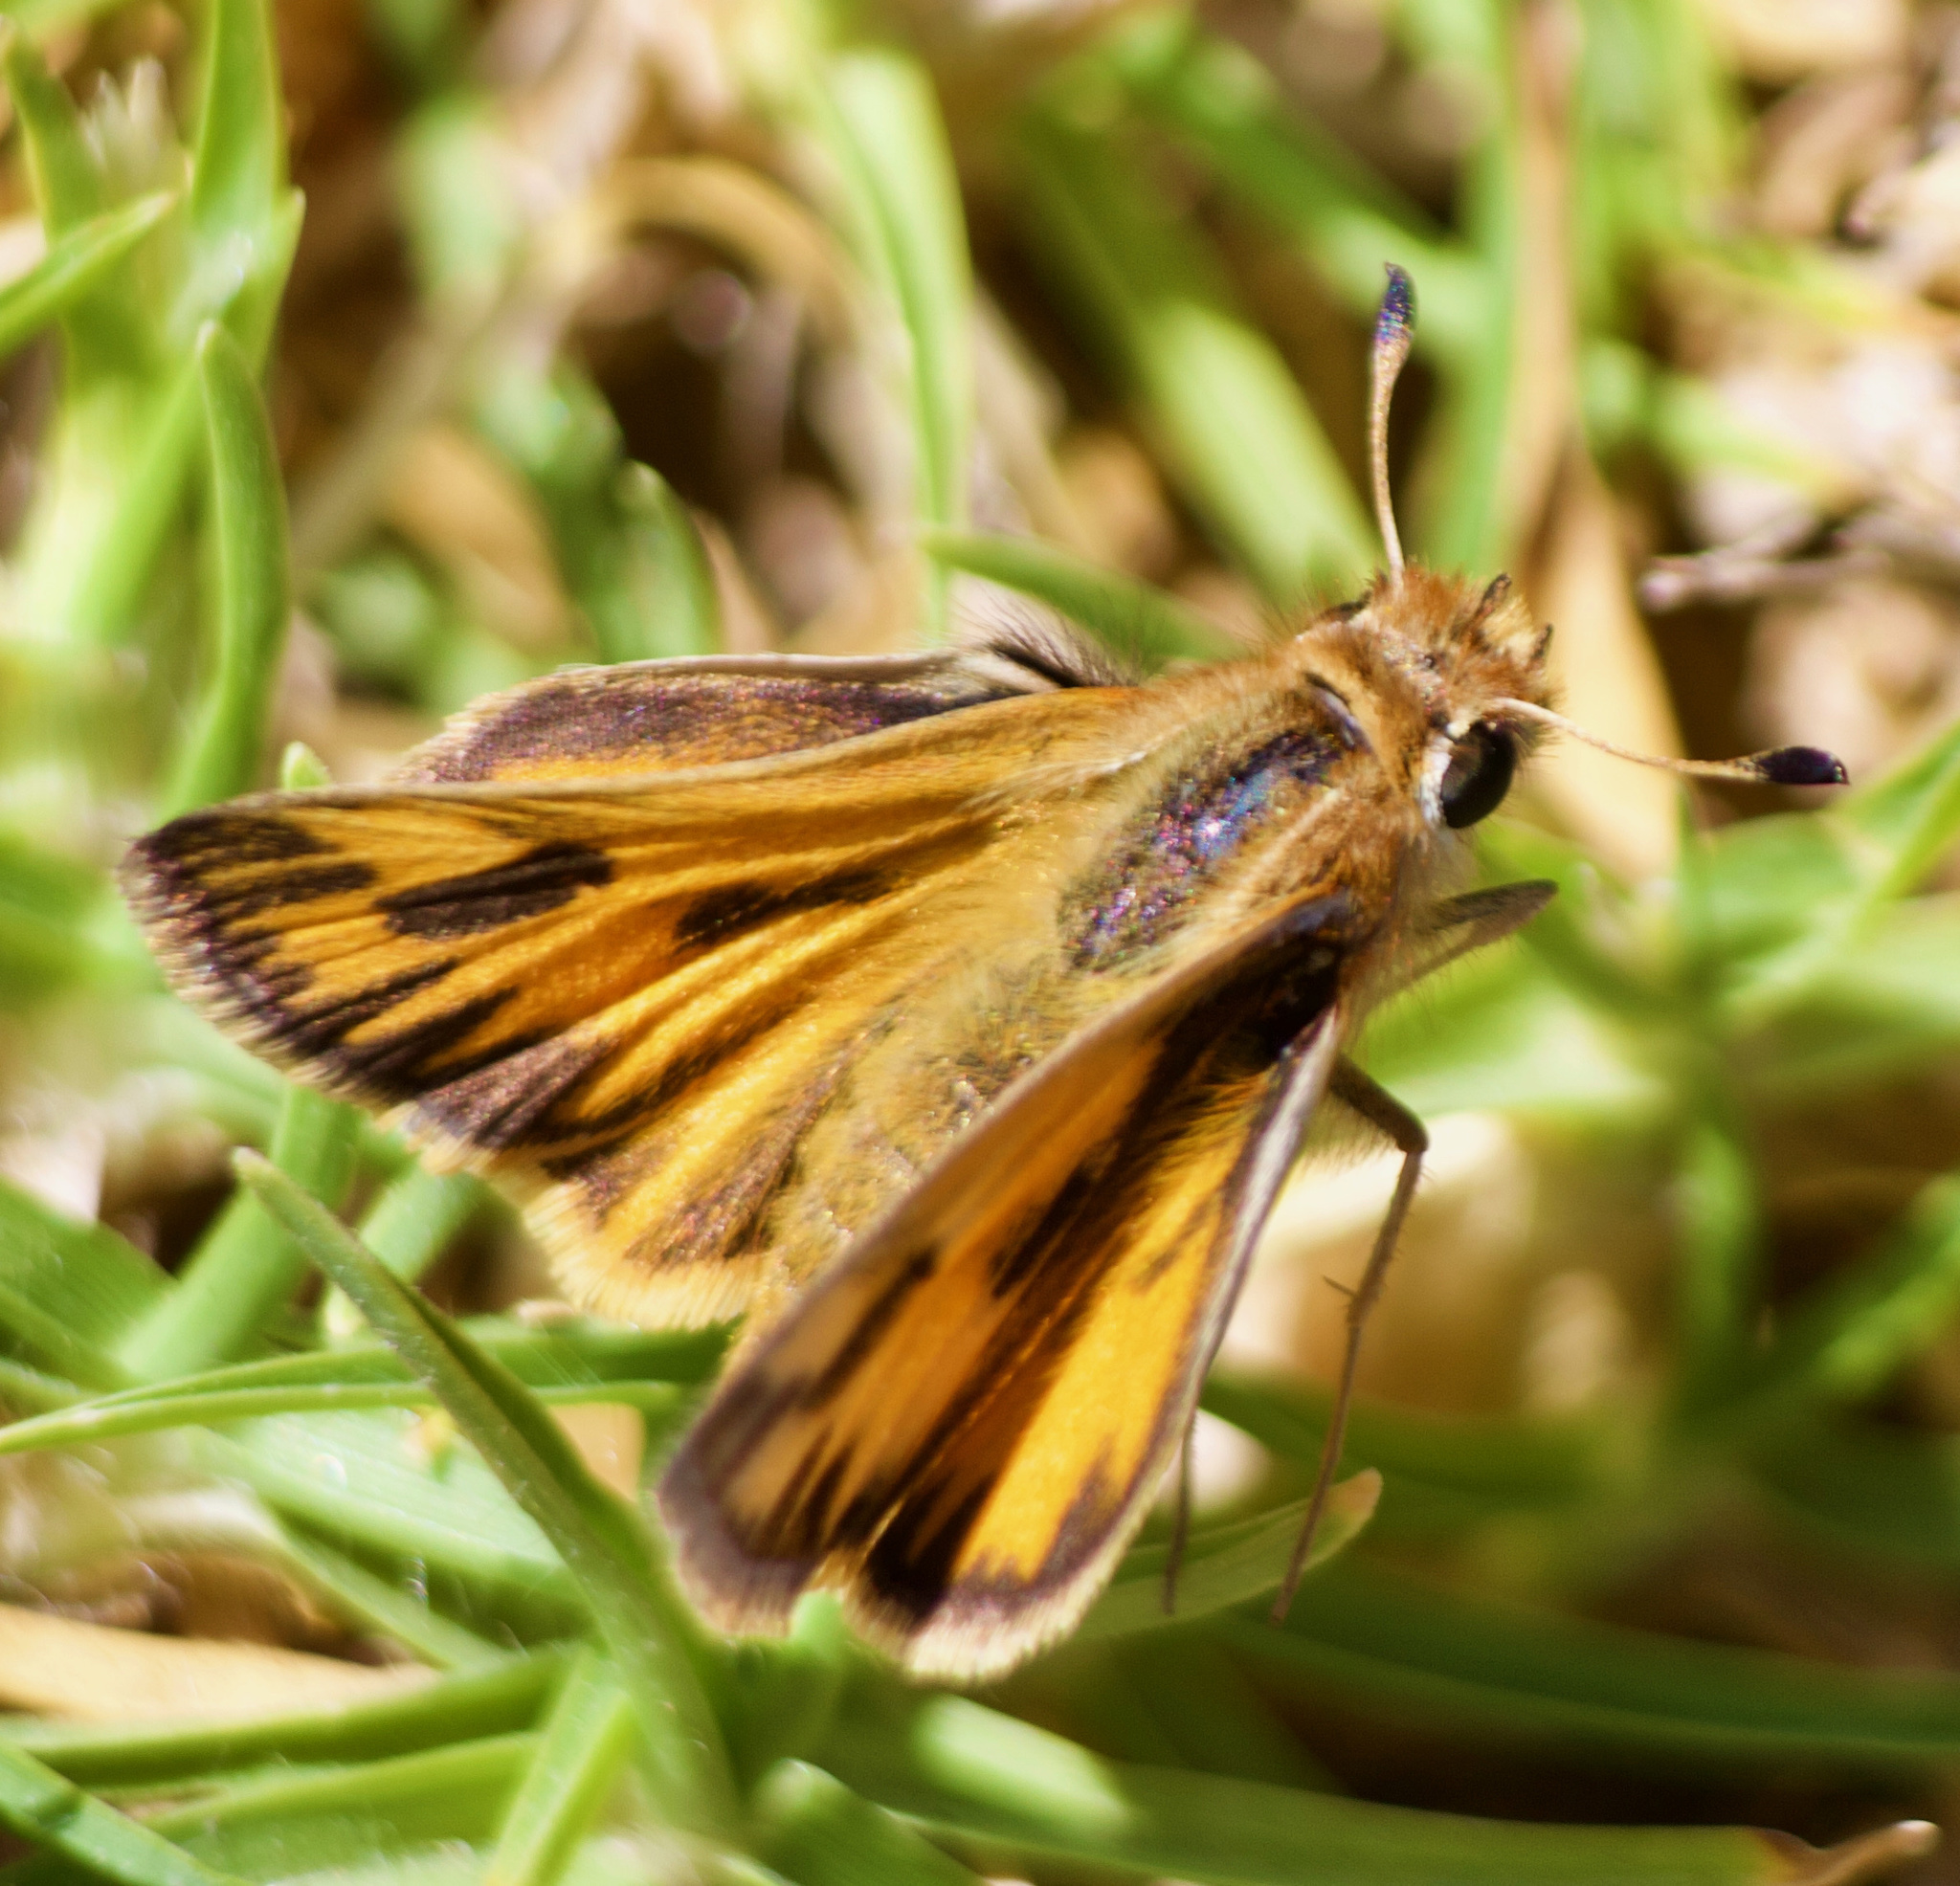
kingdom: Animalia
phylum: Arthropoda
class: Insecta
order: Lepidoptera
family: Hesperiidae
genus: Hylephila
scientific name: Hylephila fasciolata
